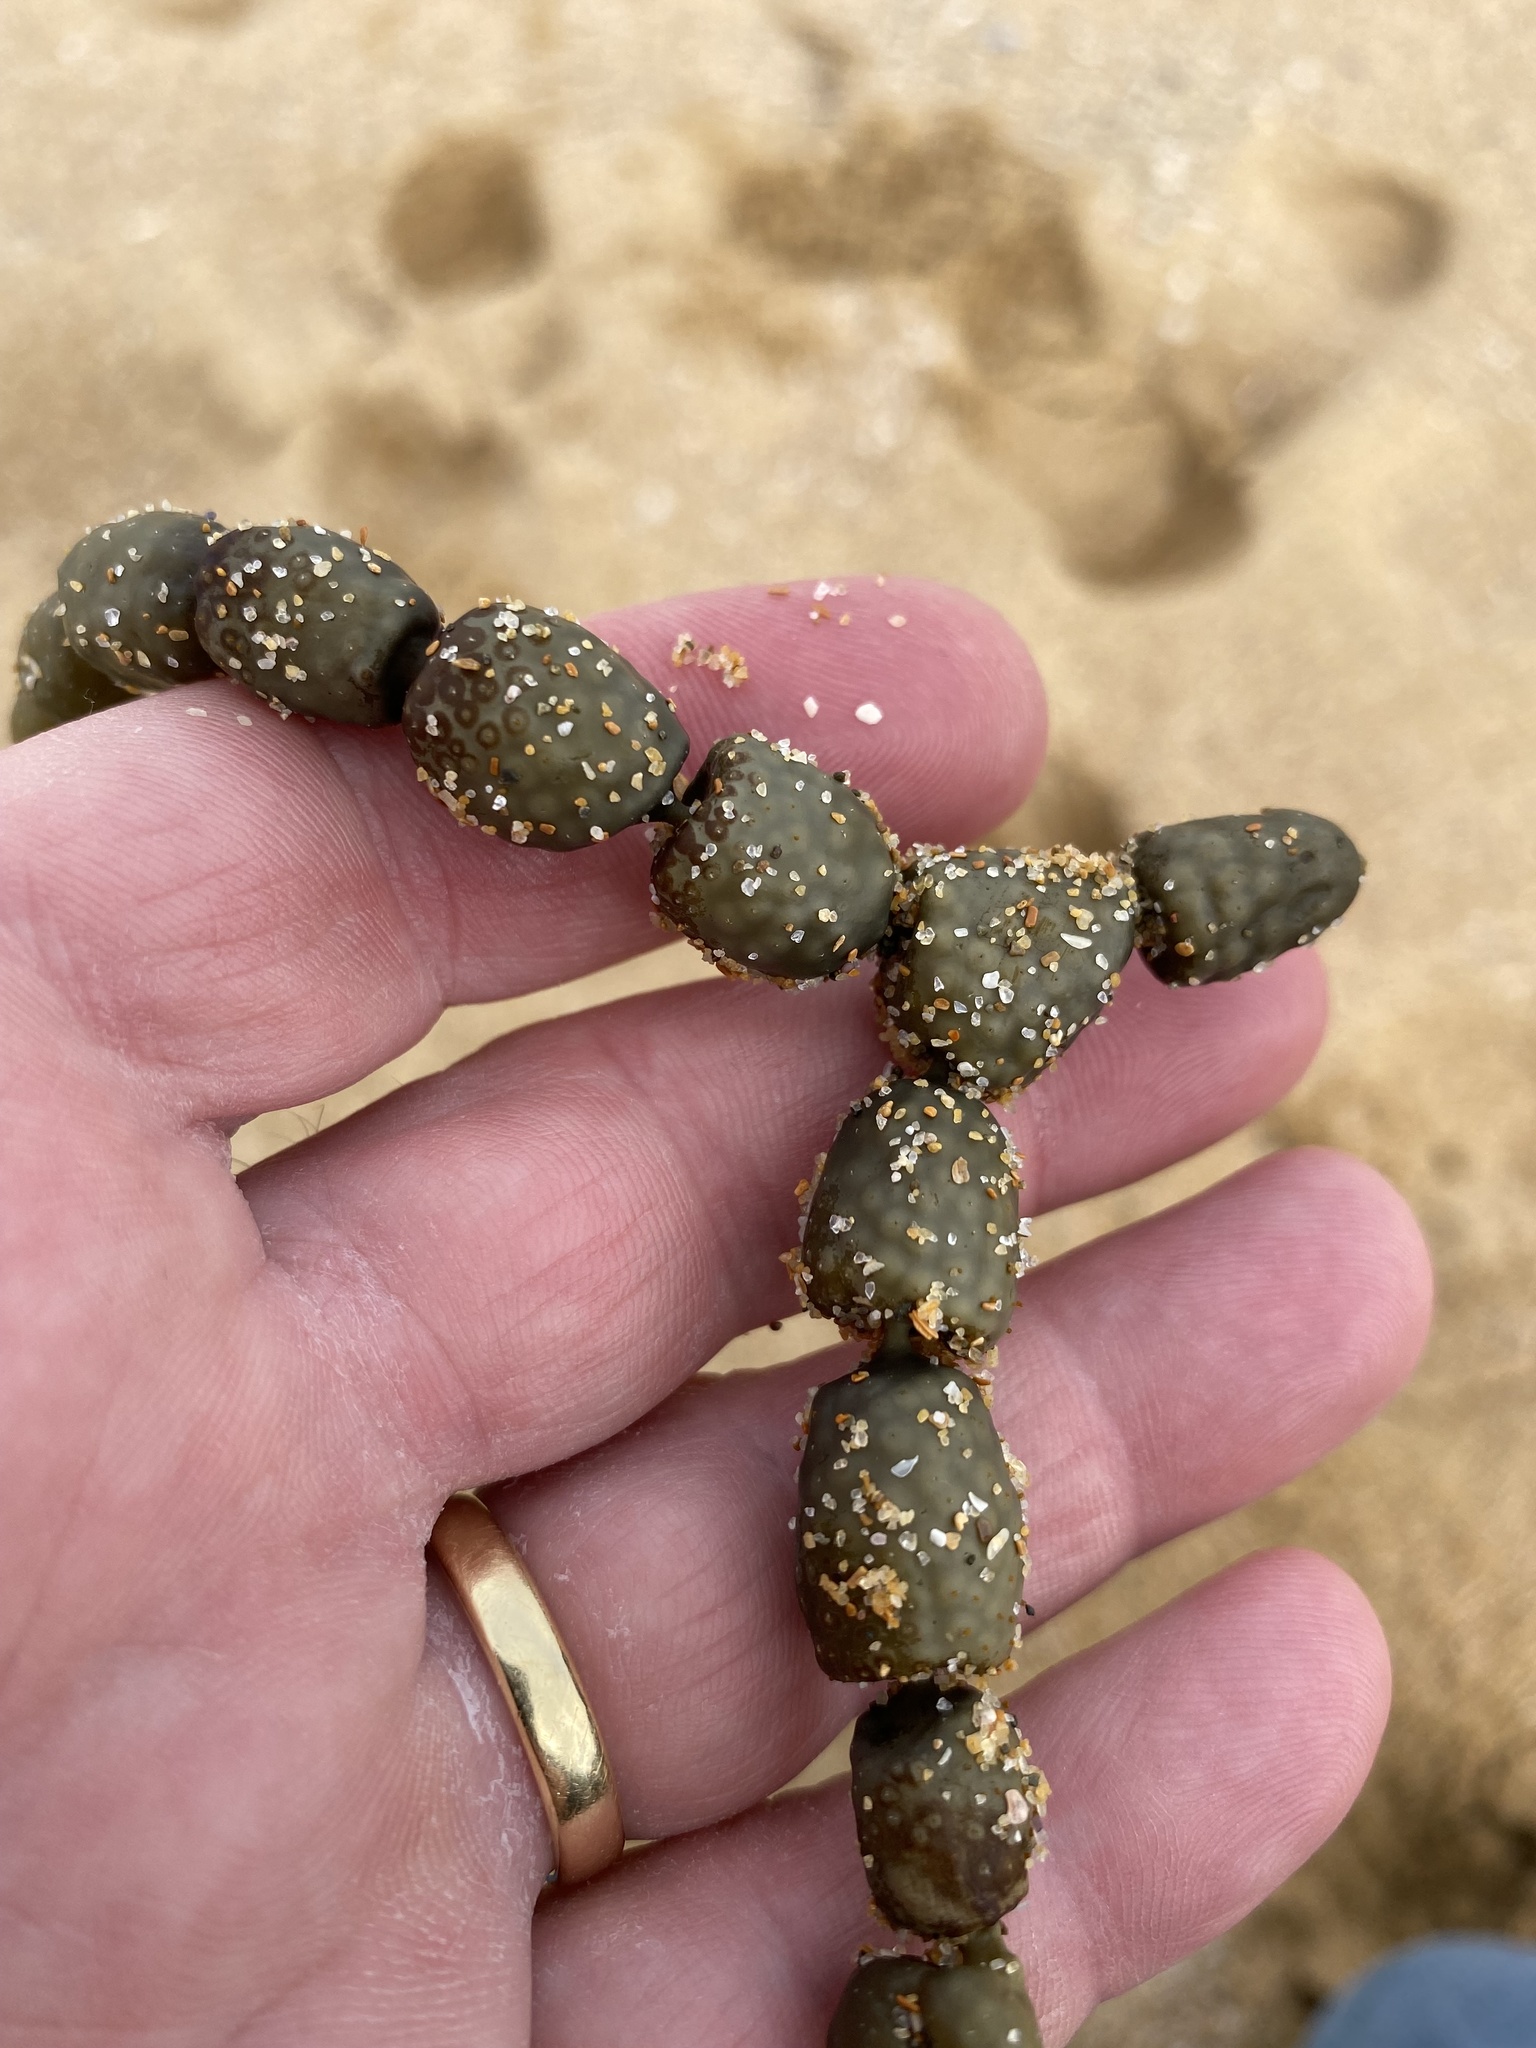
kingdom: Chromista
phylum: Ochrophyta
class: Phaeophyceae
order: Fucales
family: Hormosiraceae
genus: Hormosira
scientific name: Hormosira banksii
